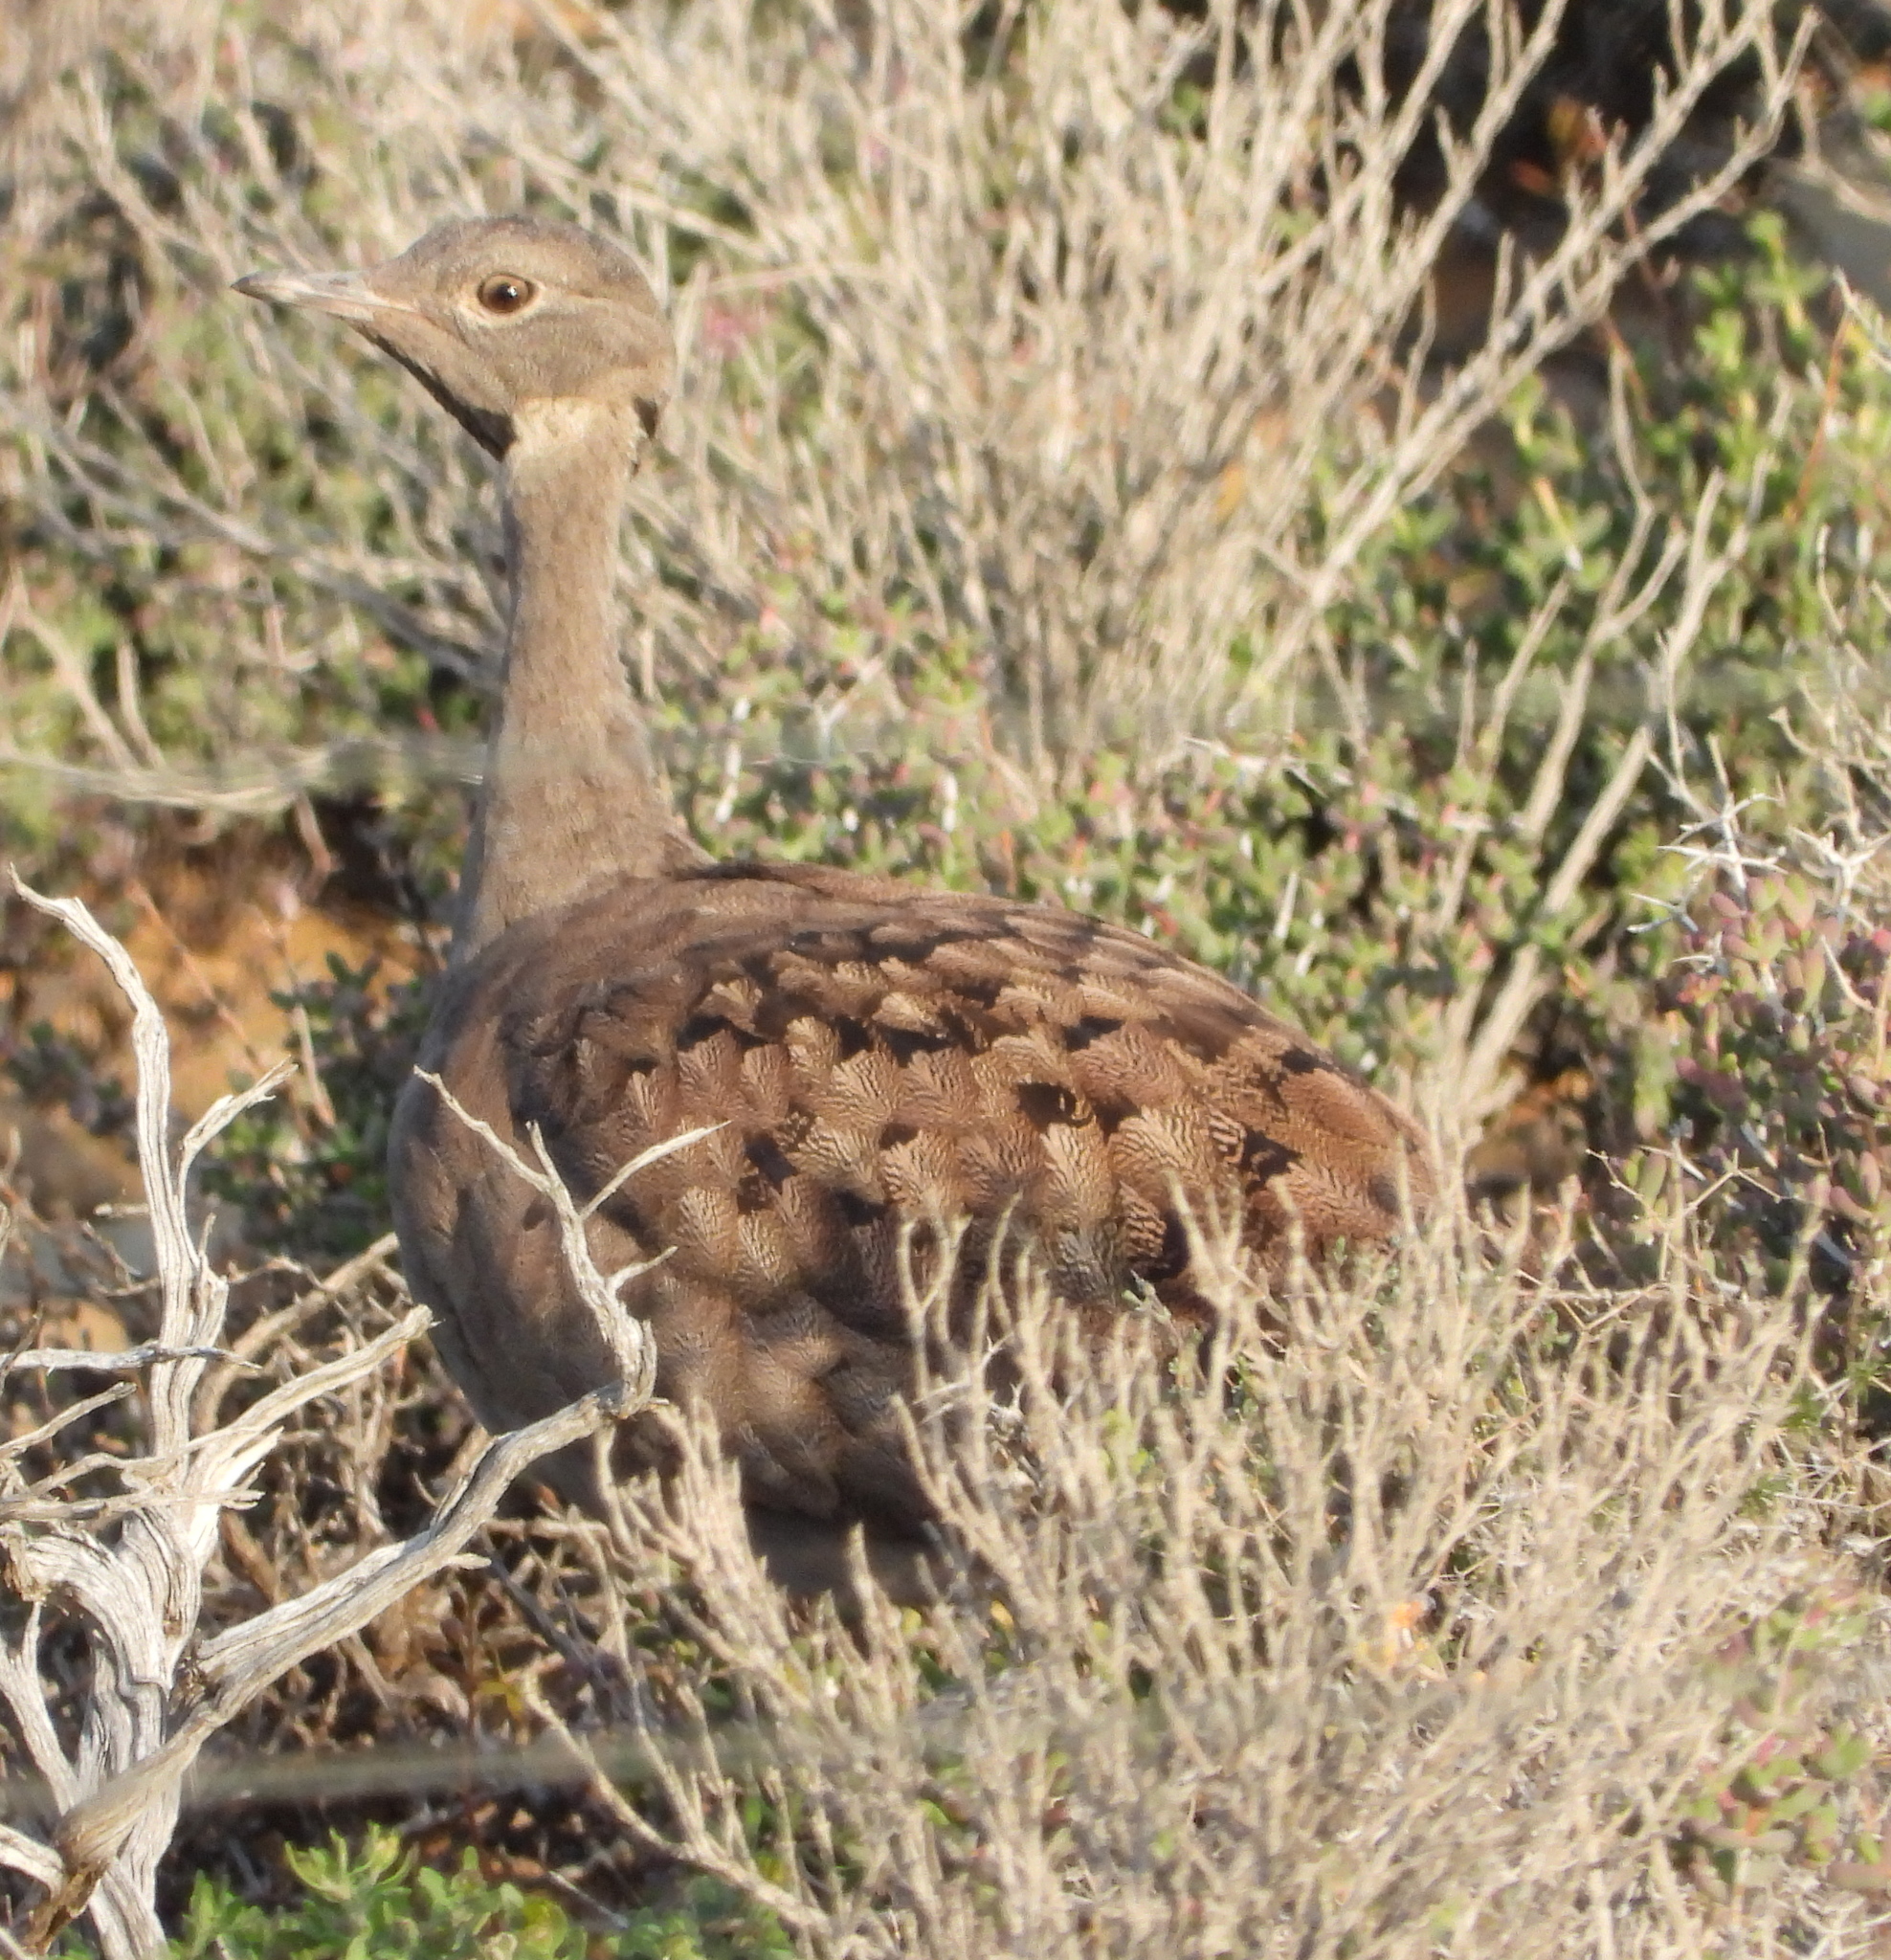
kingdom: Animalia
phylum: Chordata
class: Aves
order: Otidiformes
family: Otididae
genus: Eupodotis
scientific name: Eupodotis vigorsii
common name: Karoo korhaan
